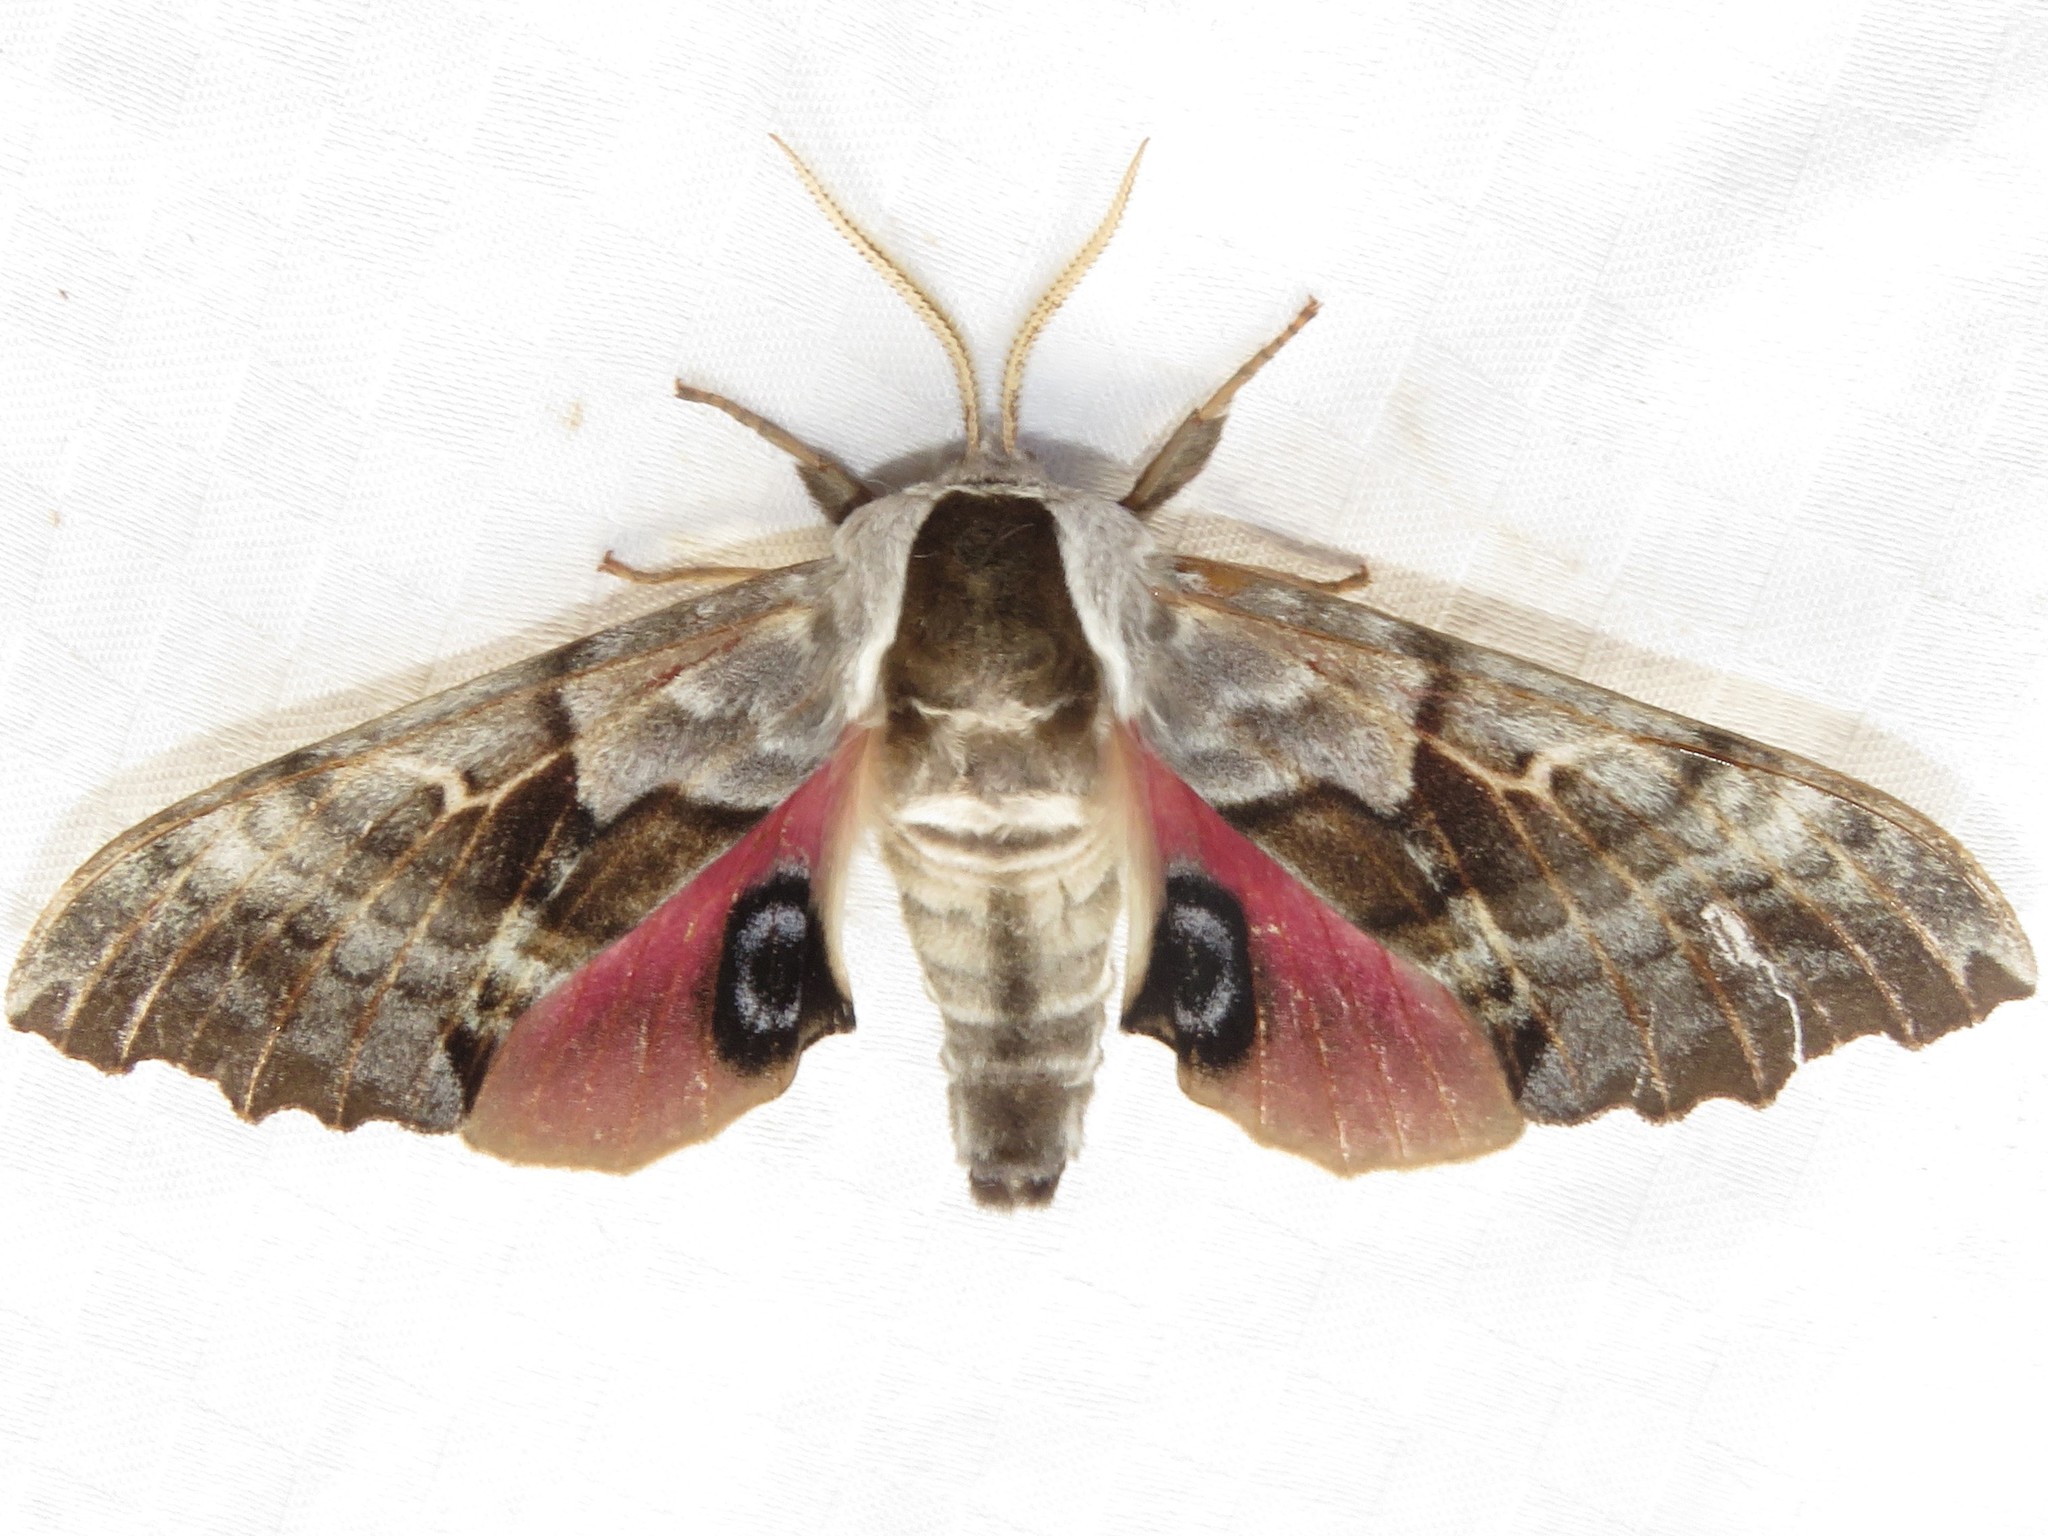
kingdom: Animalia
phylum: Arthropoda
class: Insecta
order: Lepidoptera
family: Sphingidae
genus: Smerinthus
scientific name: Smerinthus cerisyi
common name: Cerisy's sphinx moth
